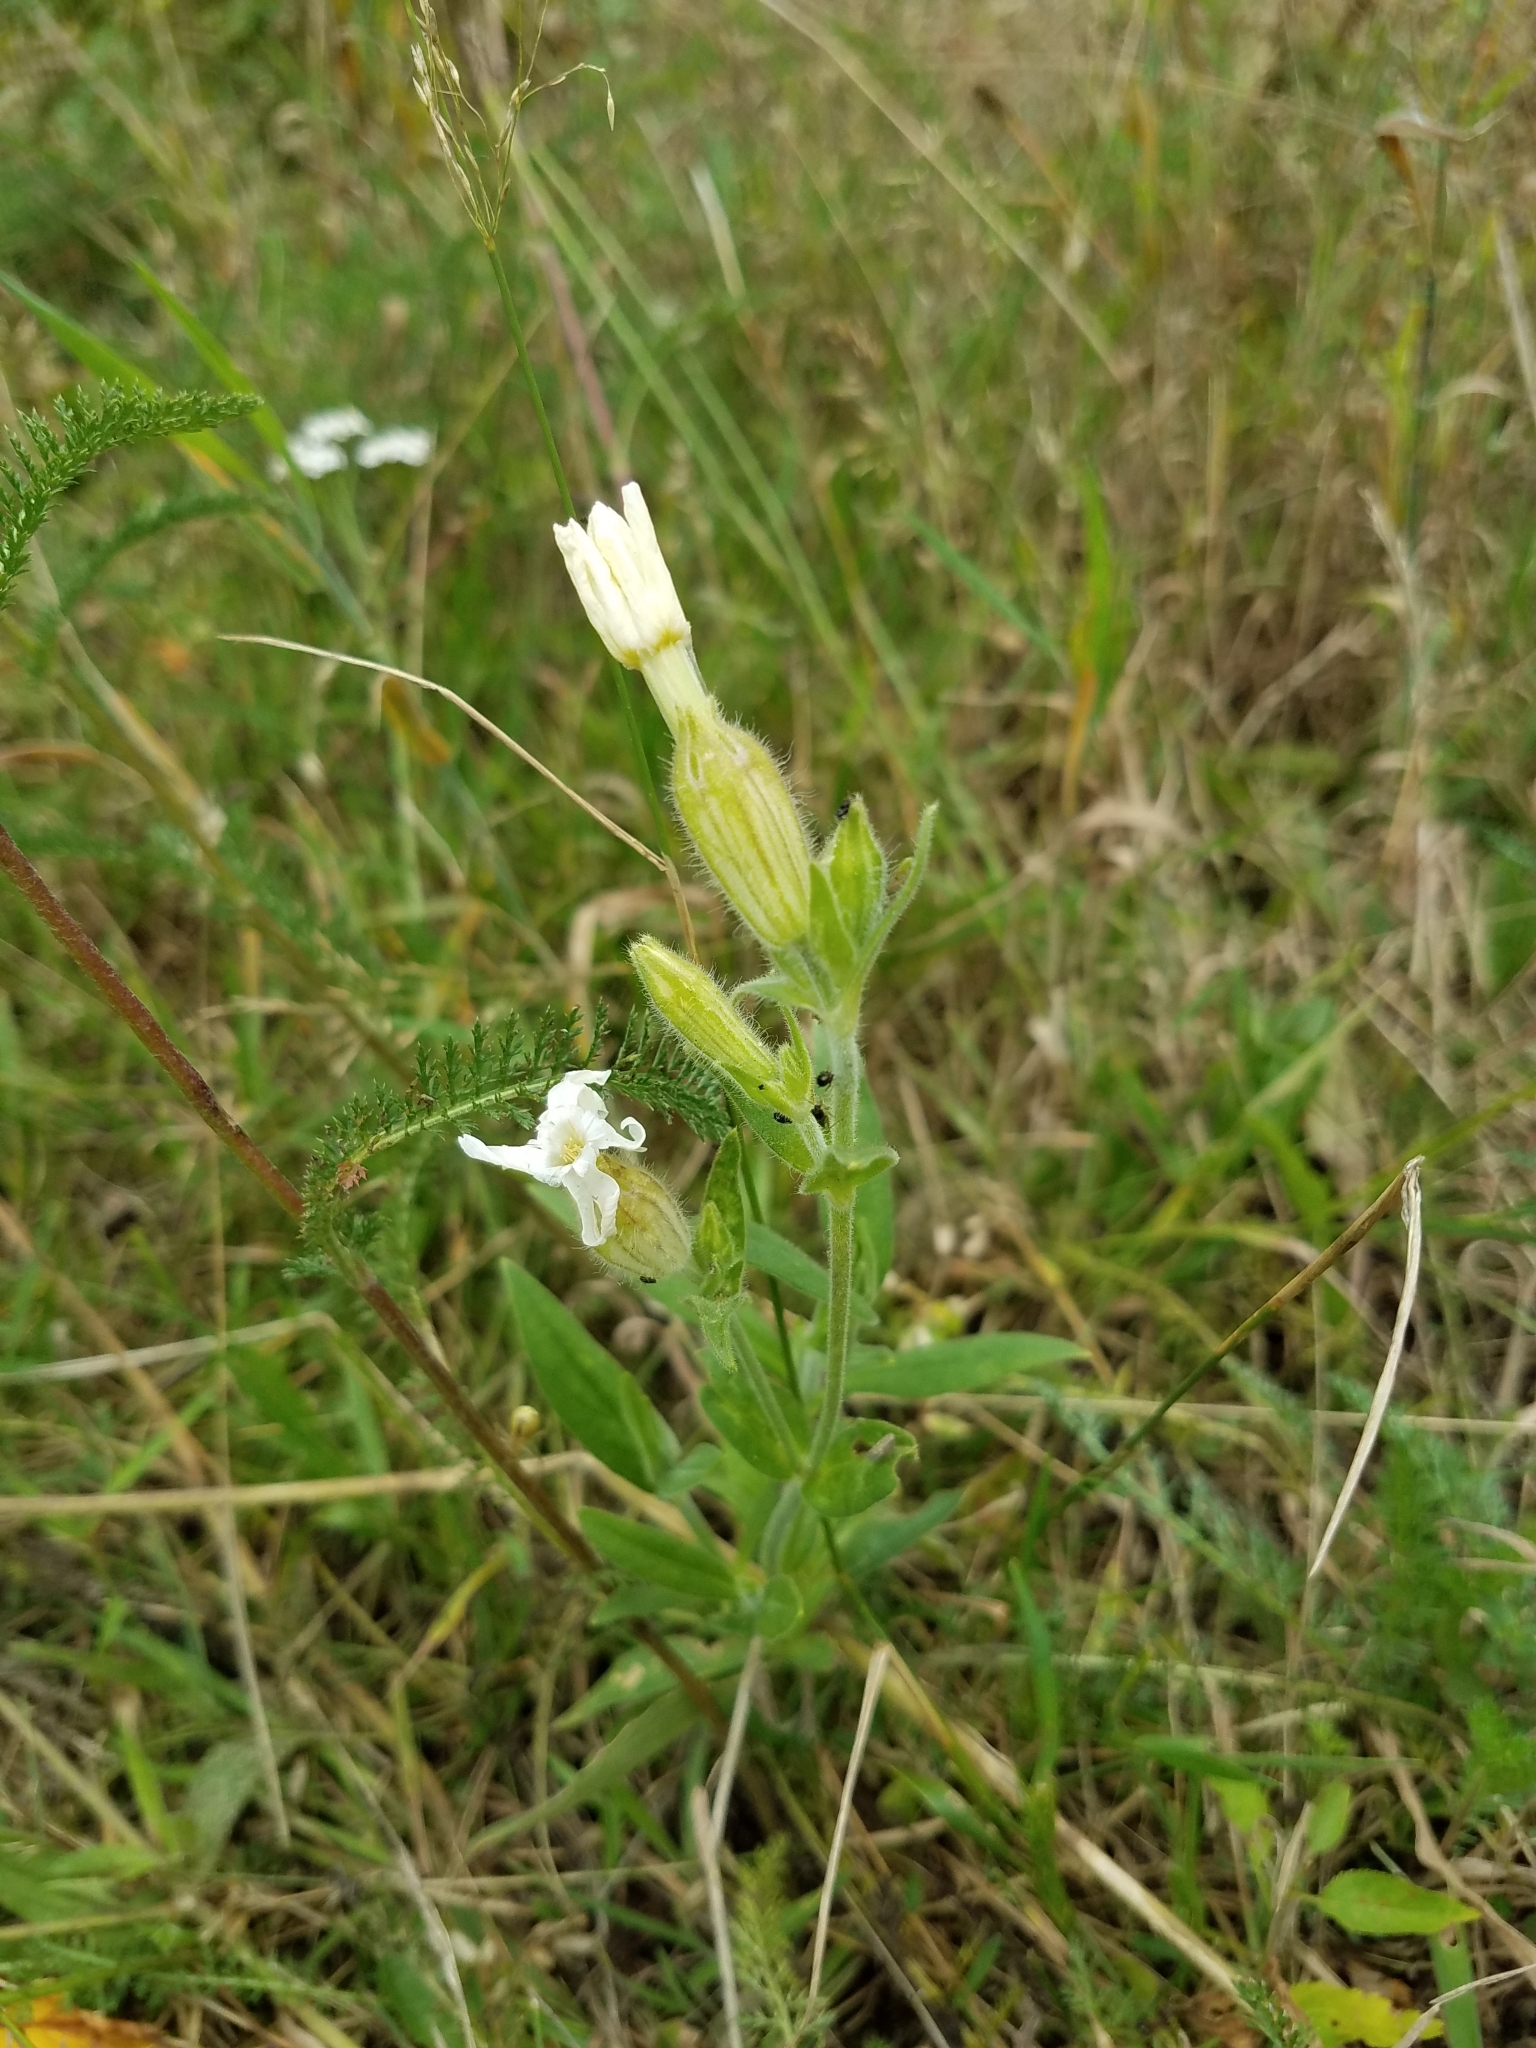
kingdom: Plantae
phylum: Tracheophyta
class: Magnoliopsida
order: Caryophyllales
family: Caryophyllaceae
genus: Silene
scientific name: Silene latifolia
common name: White campion
